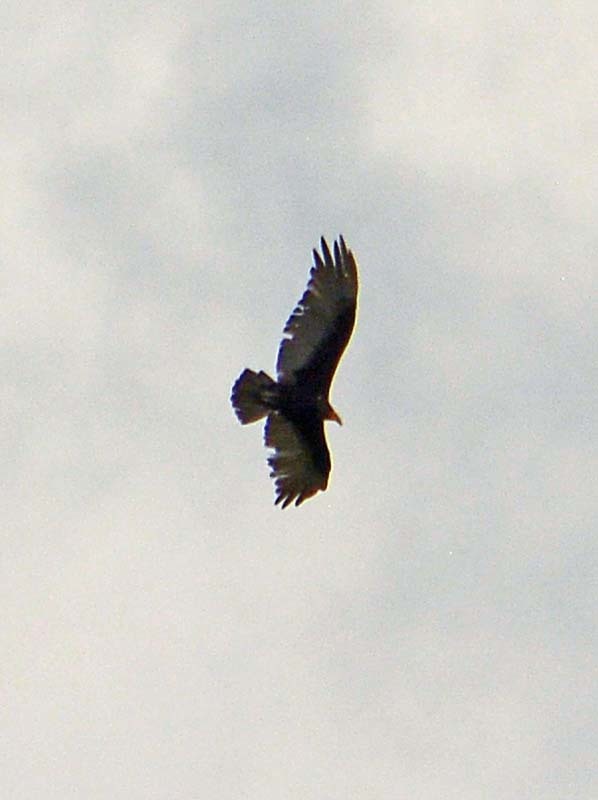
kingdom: Animalia
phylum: Chordata
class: Aves
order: Accipitriformes
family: Cathartidae
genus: Cathartes
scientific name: Cathartes aura
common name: Turkey vulture
